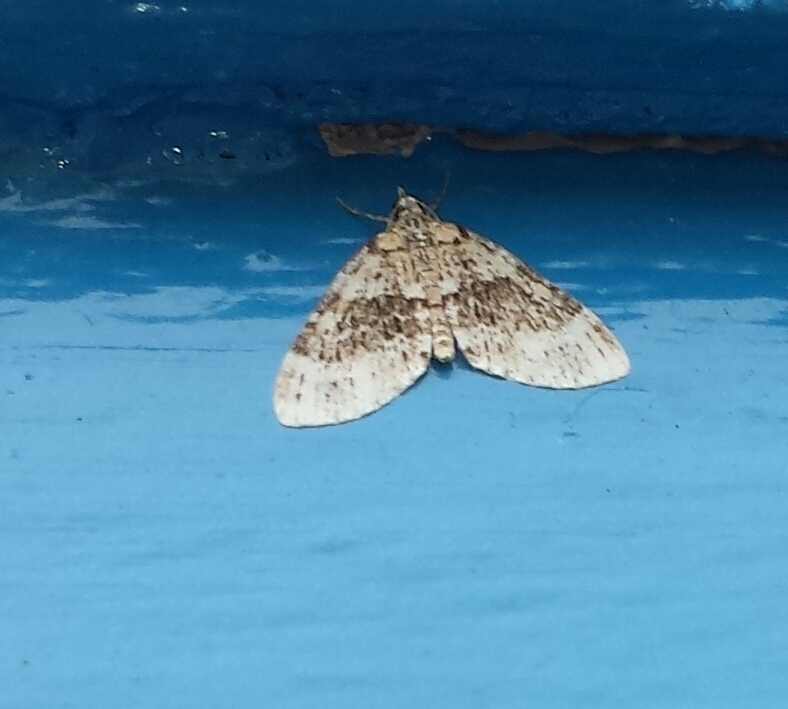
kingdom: Animalia
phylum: Arthropoda
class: Insecta
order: Lepidoptera
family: Geometridae
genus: Acasis
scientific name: Acasis viridata
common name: Olive-and-black carpet moth
